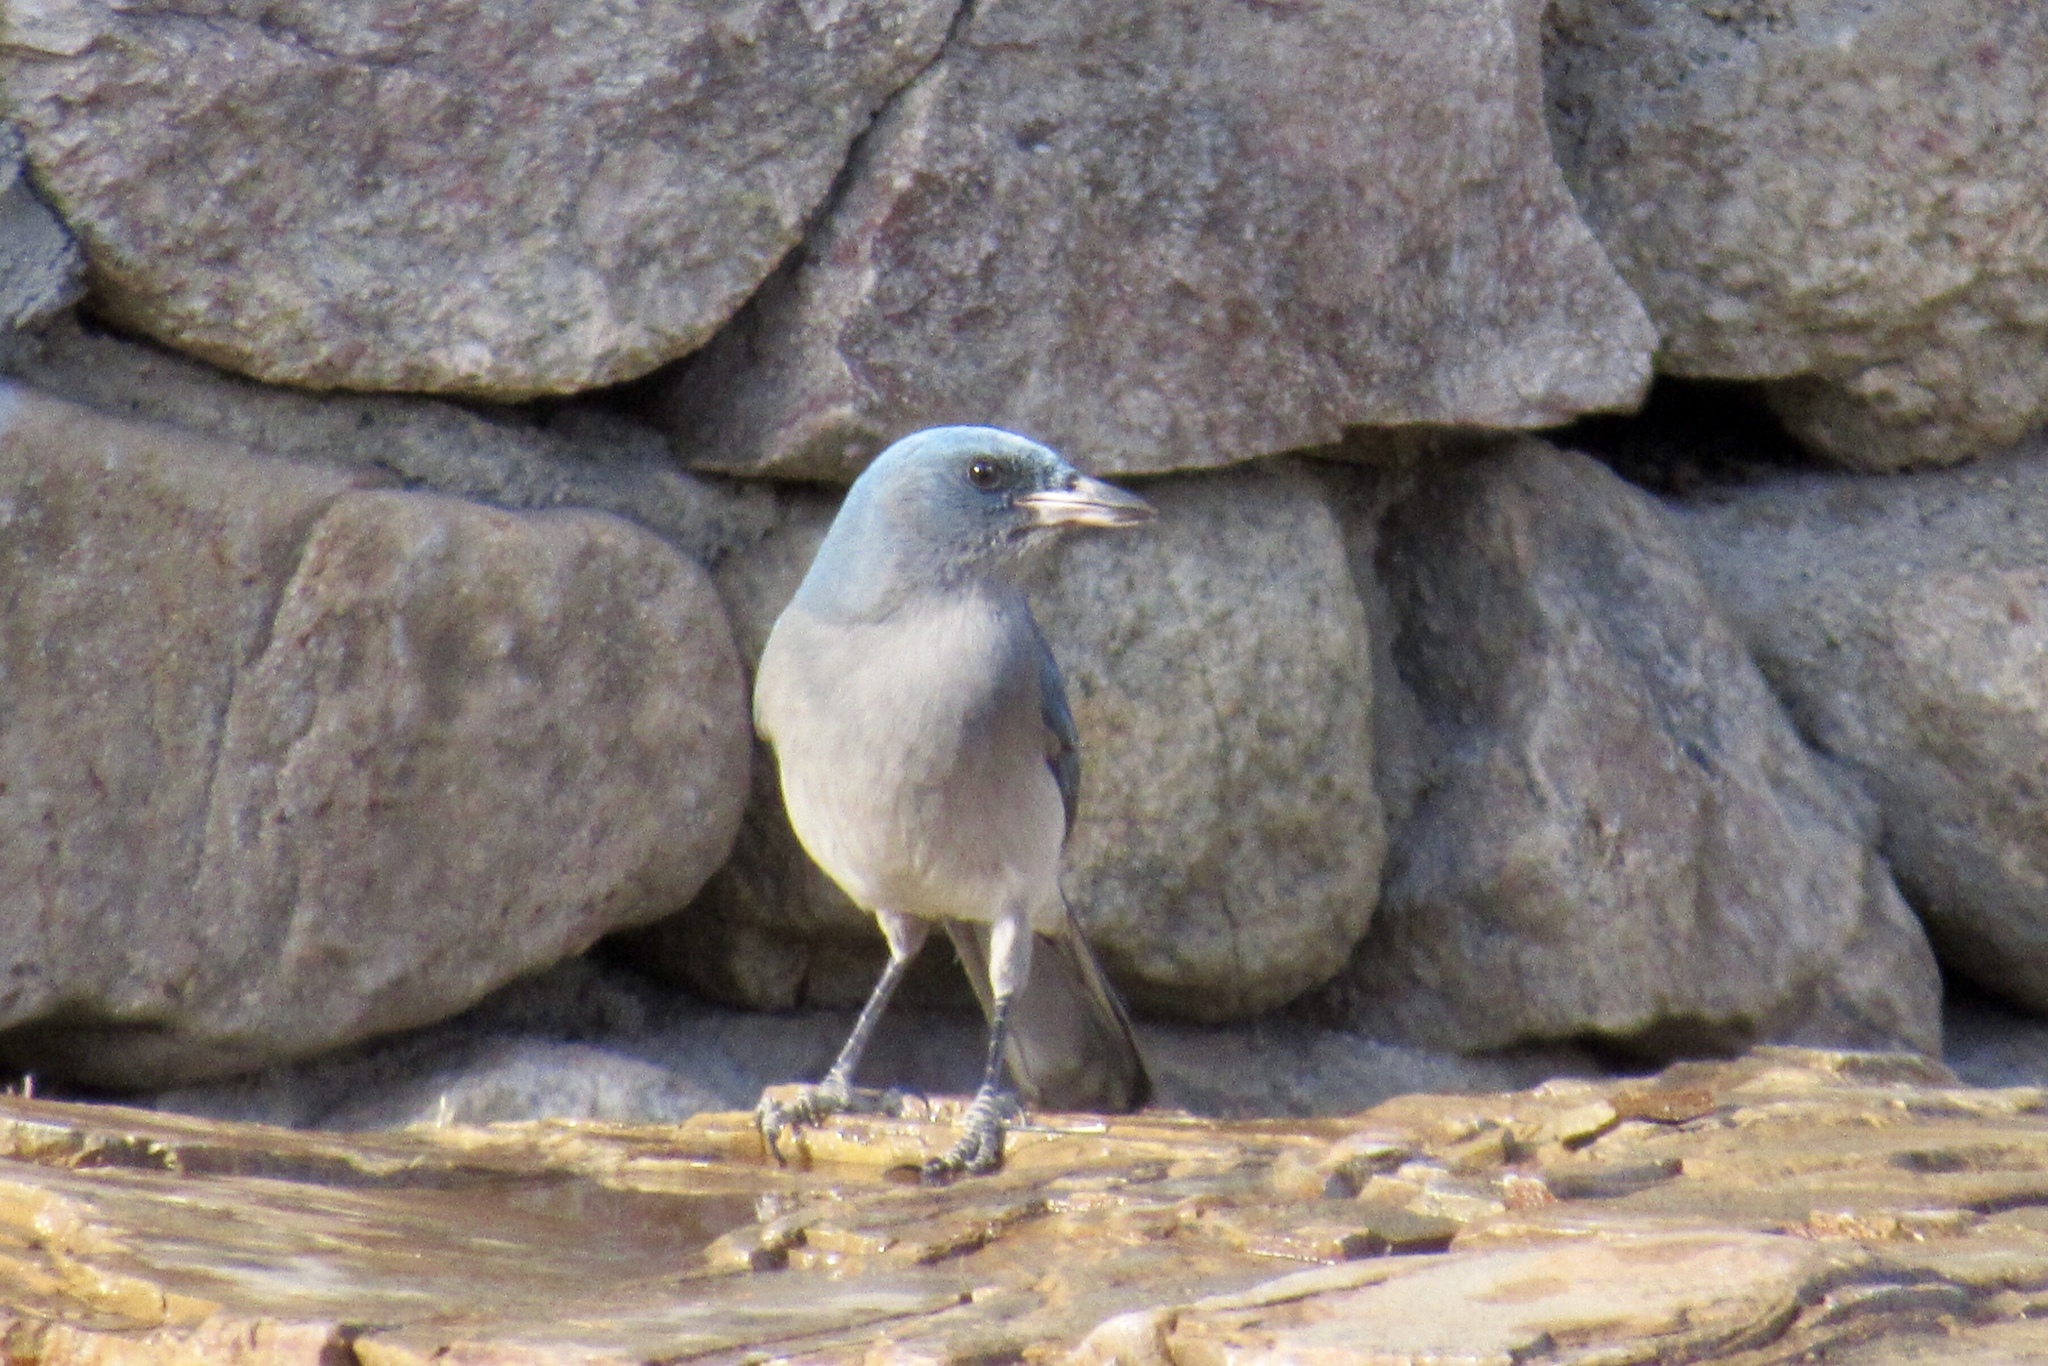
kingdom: Animalia
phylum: Chordata
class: Aves
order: Passeriformes
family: Corvidae
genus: Aphelocoma
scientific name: Aphelocoma wollweberi
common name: Mexican jay
